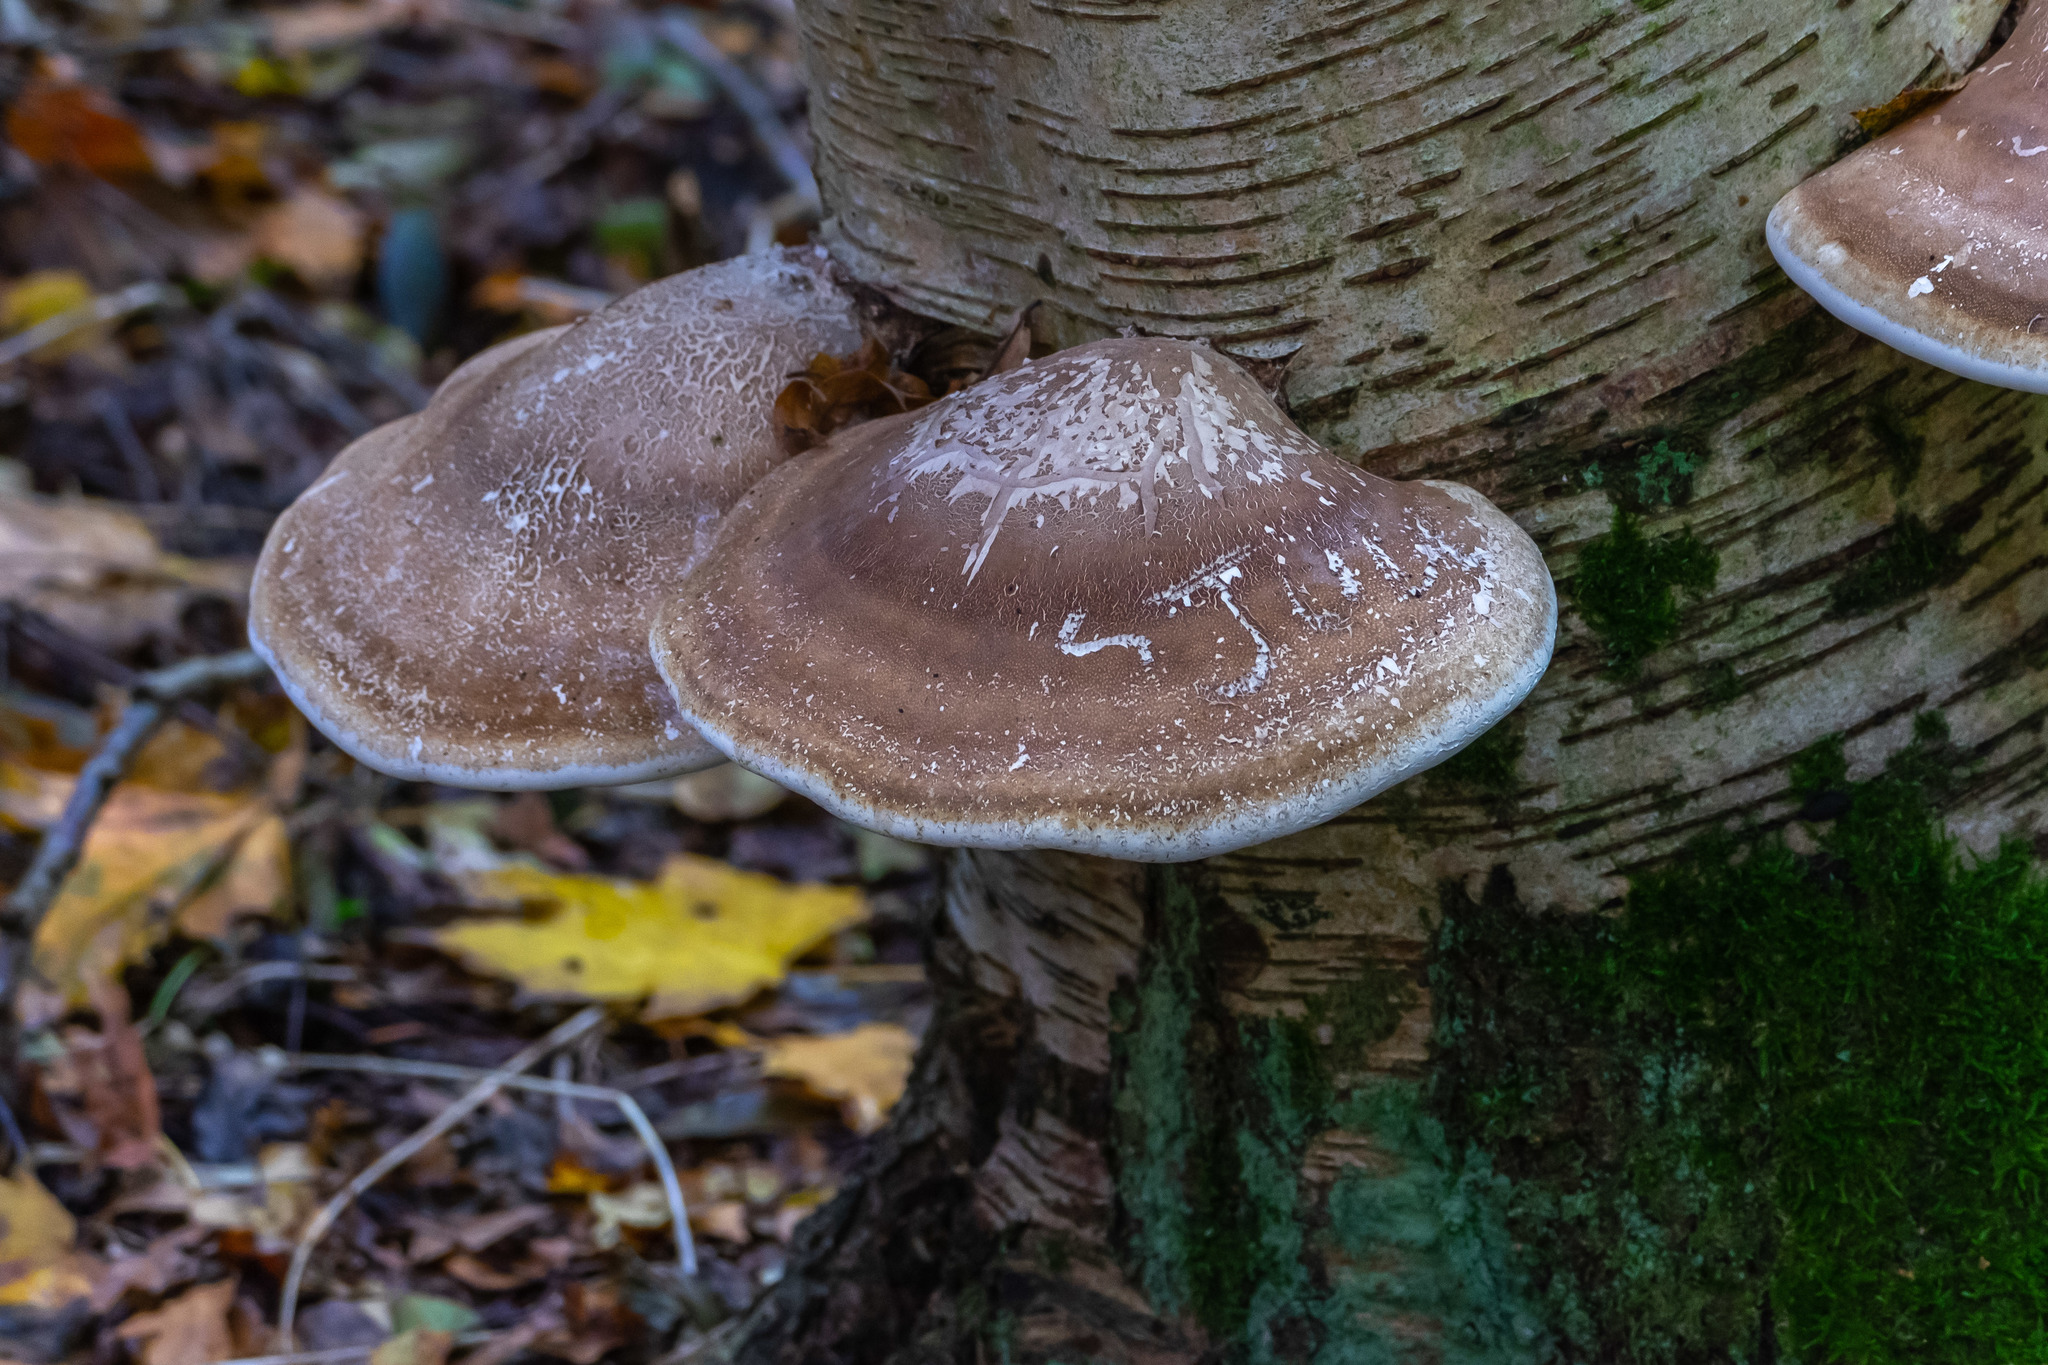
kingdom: Fungi
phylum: Basidiomycota
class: Agaricomycetes
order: Polyporales
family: Fomitopsidaceae
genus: Fomitopsis
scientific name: Fomitopsis betulina
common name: Birch polypore
